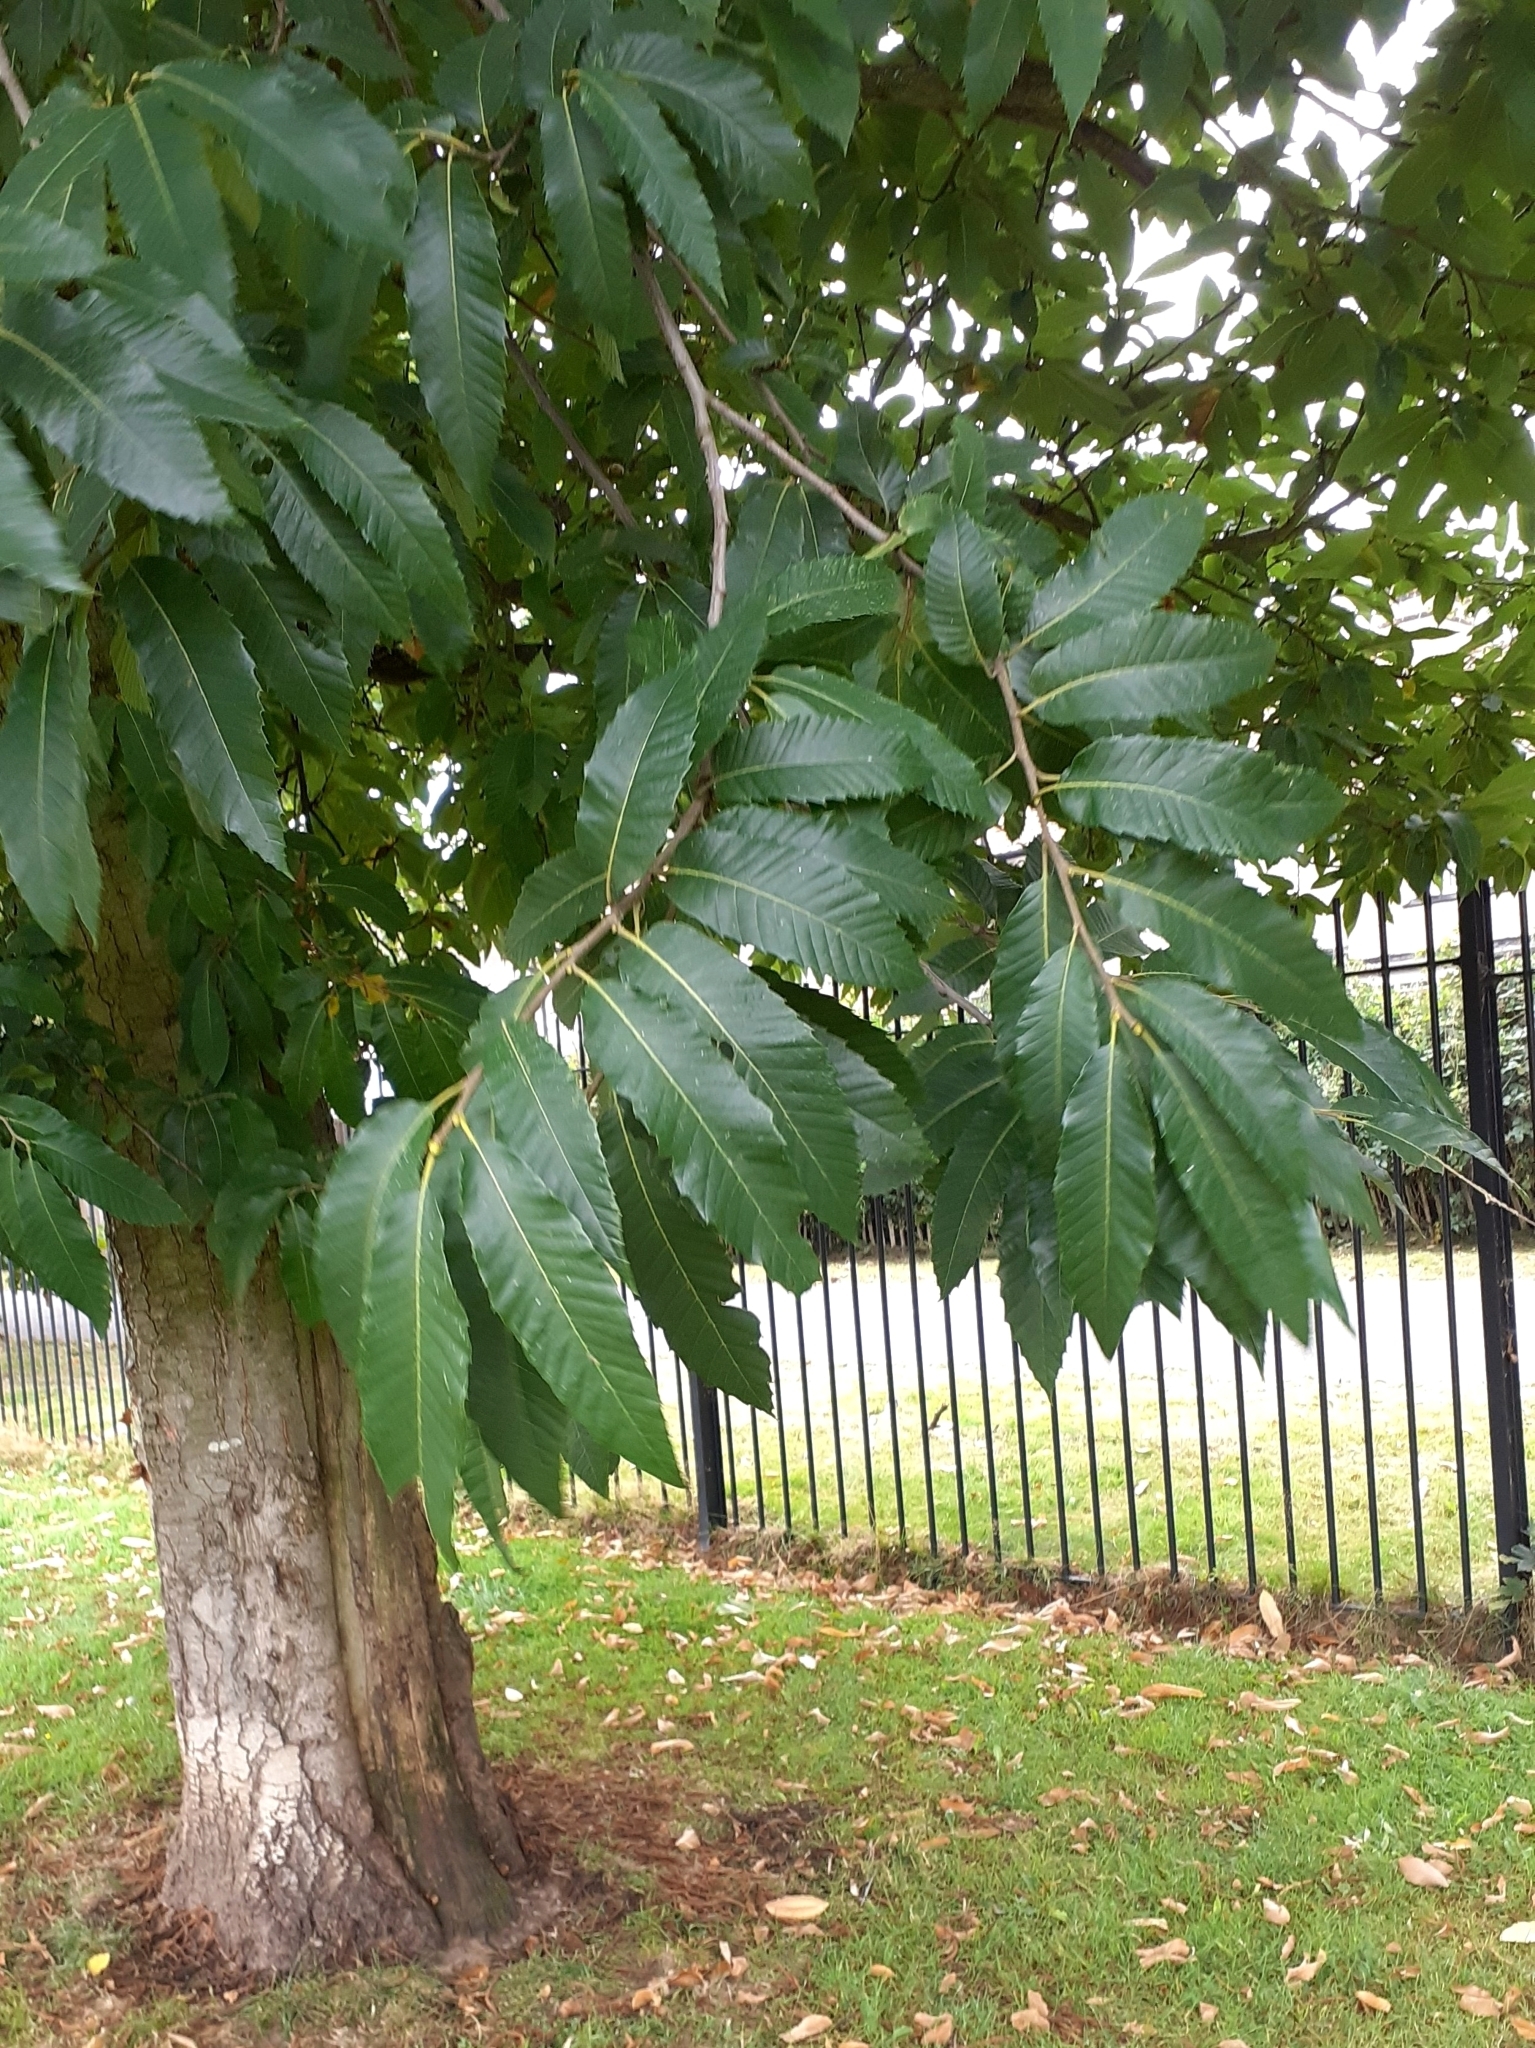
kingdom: Plantae
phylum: Tracheophyta
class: Magnoliopsida
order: Fagales
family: Fagaceae
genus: Castanea
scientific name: Castanea sativa
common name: Sweet chestnut
